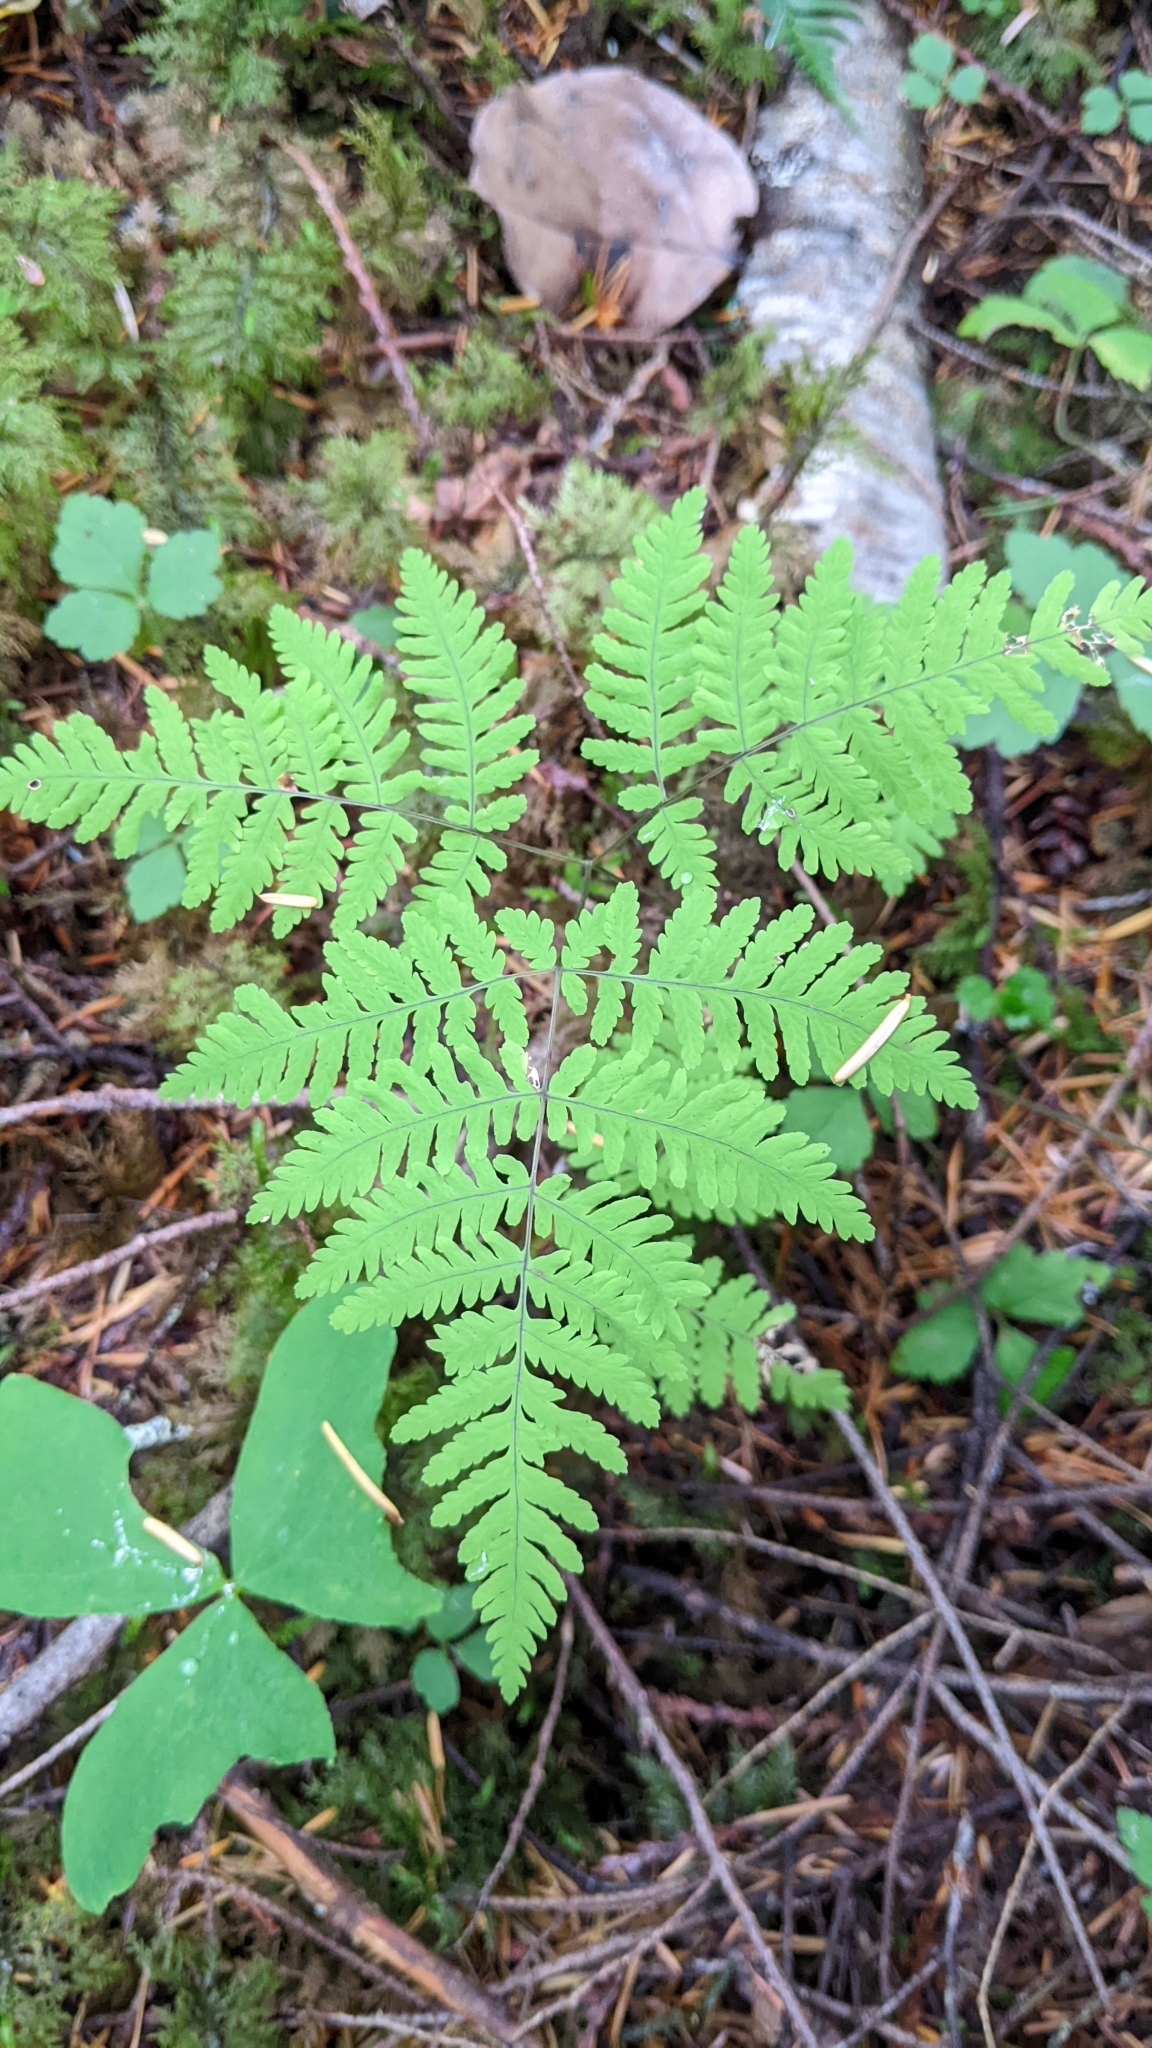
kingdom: Plantae
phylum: Tracheophyta
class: Polypodiopsida
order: Polypodiales
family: Cystopteridaceae
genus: Gymnocarpium
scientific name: Gymnocarpium disjunctum
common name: Western oak fern
